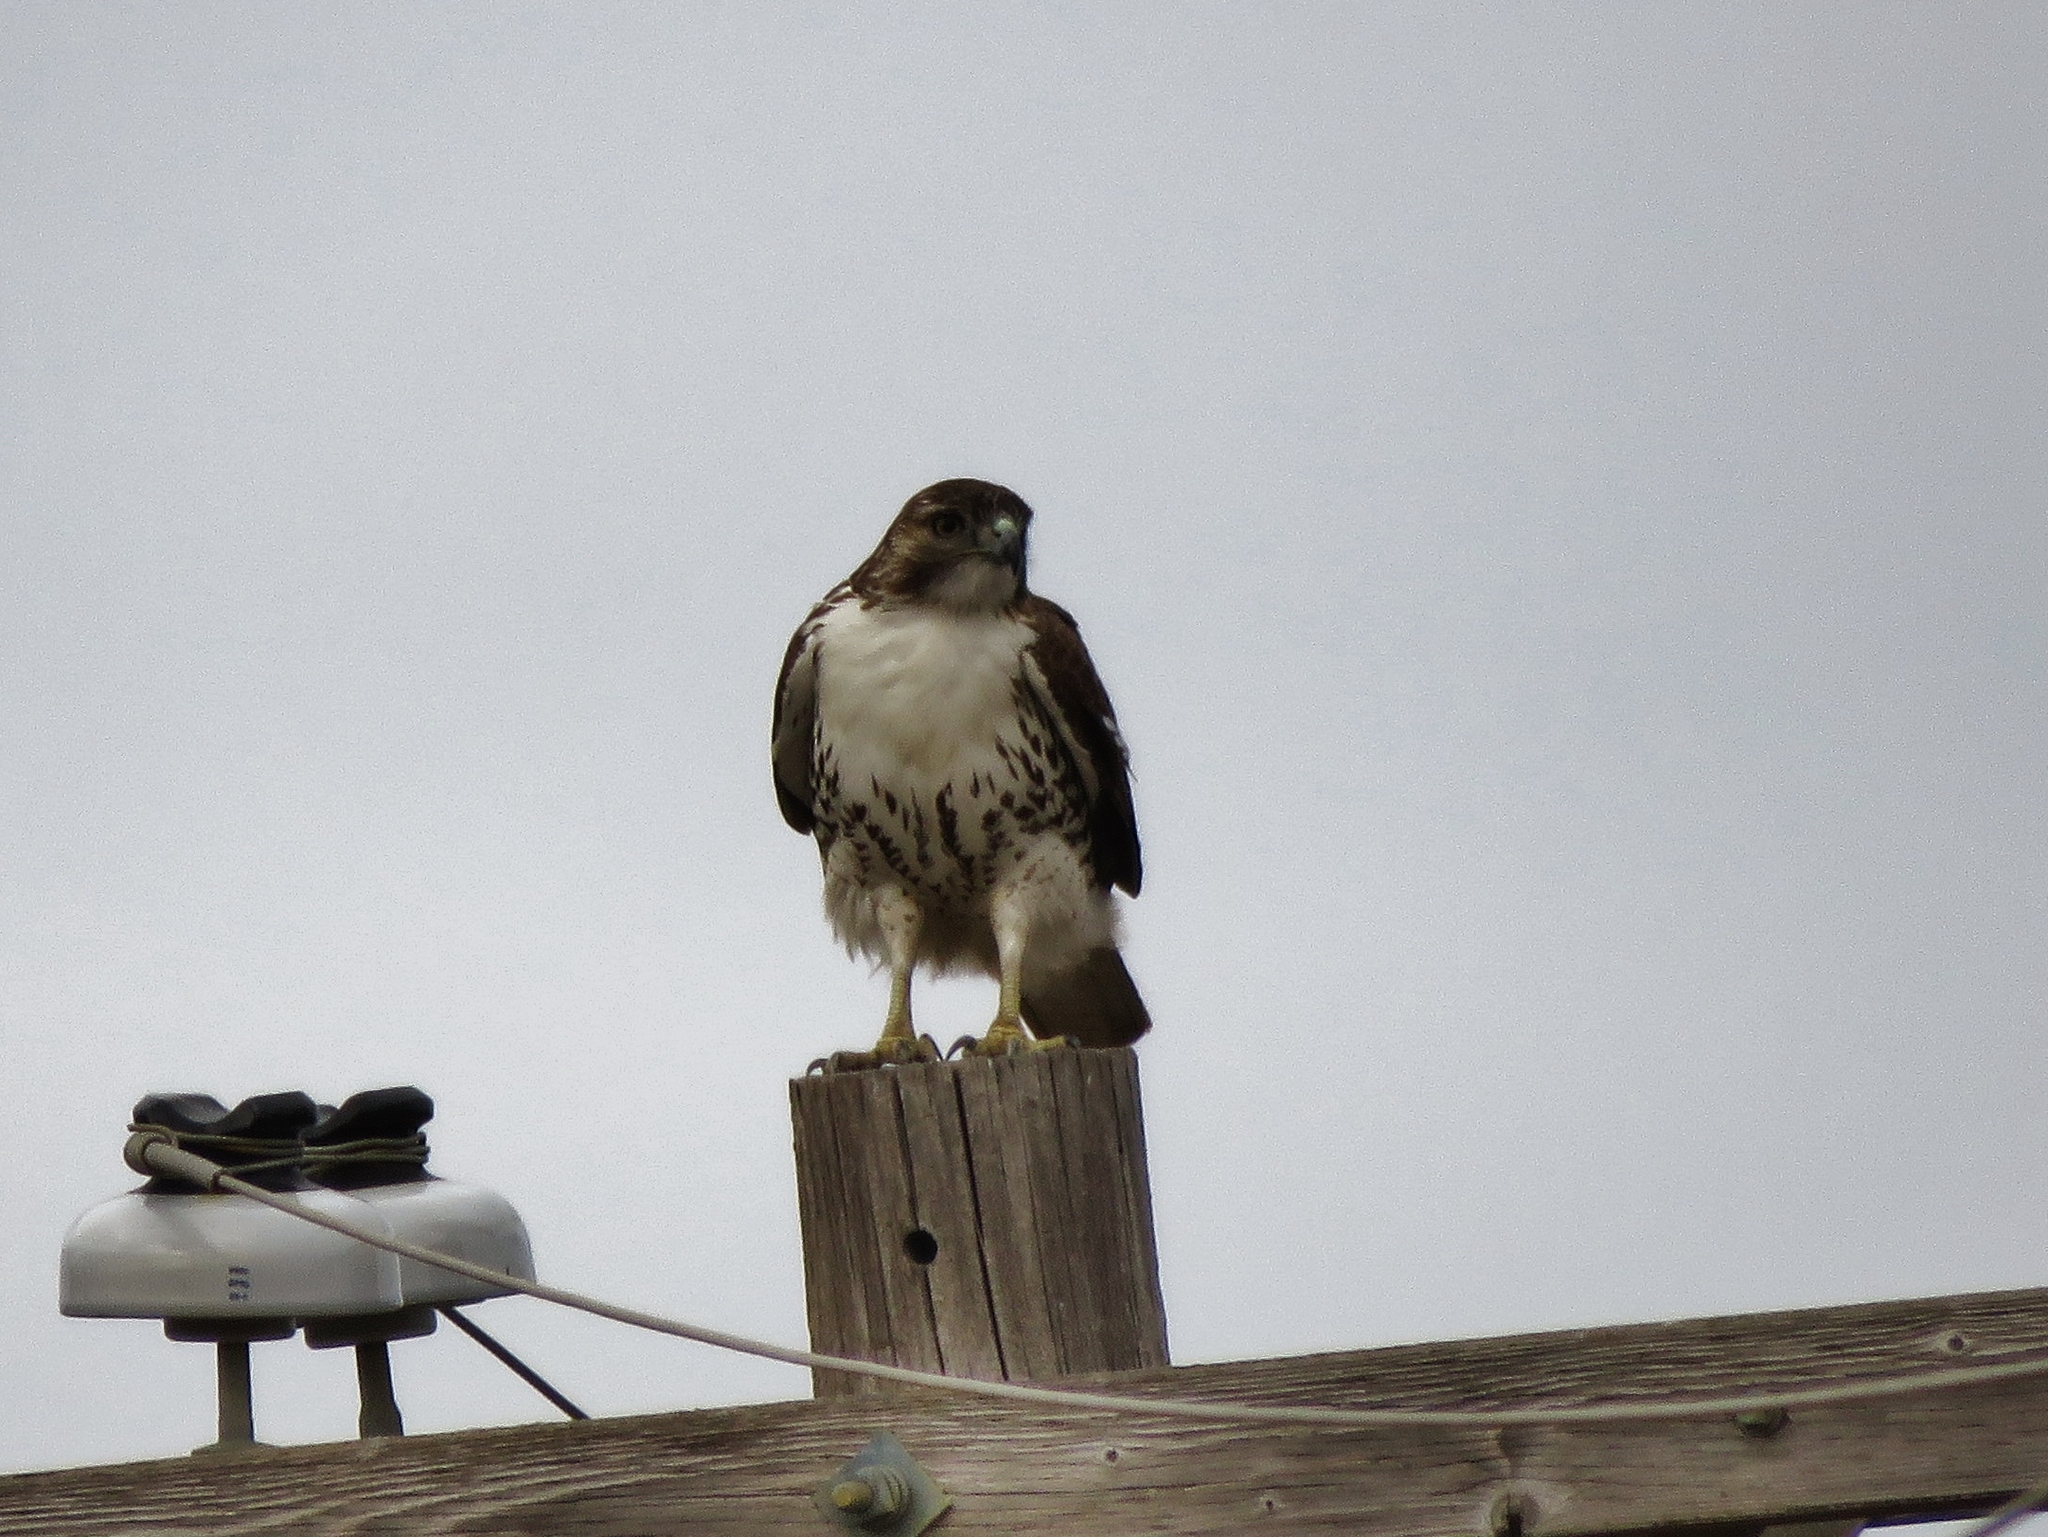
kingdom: Animalia
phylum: Chordata
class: Aves
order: Accipitriformes
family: Accipitridae
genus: Buteo
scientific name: Buteo jamaicensis
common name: Red-tailed hawk
